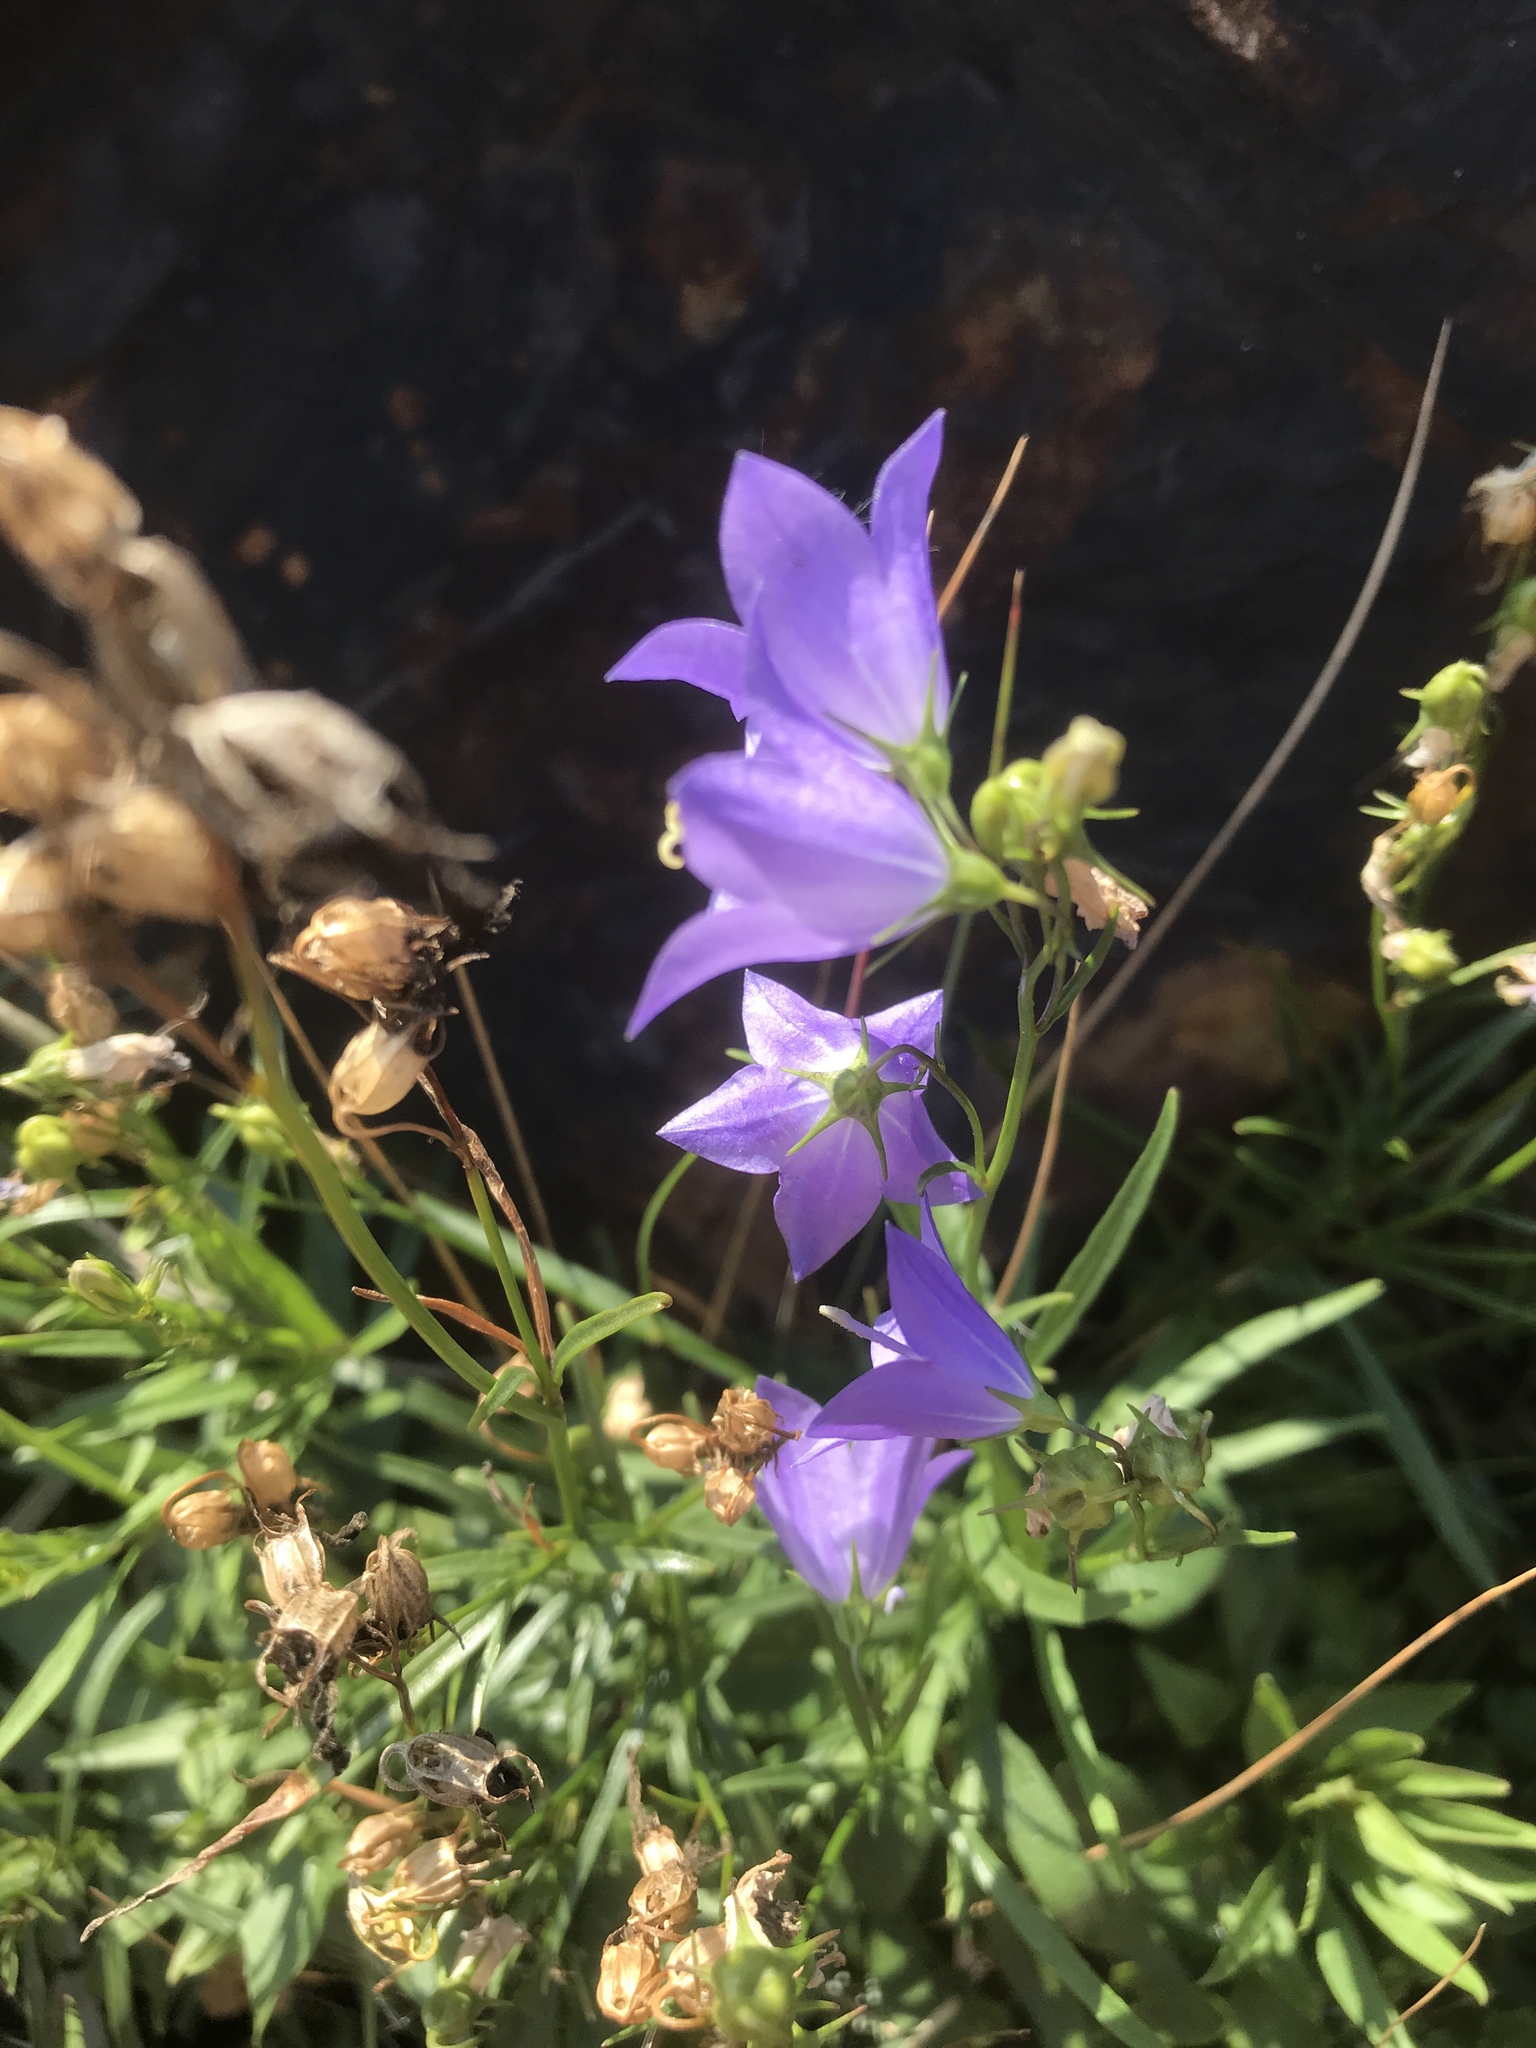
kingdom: Plantae
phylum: Tracheophyta
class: Magnoliopsida
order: Asterales
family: Campanulaceae
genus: Campanula
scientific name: Campanula intercedens
